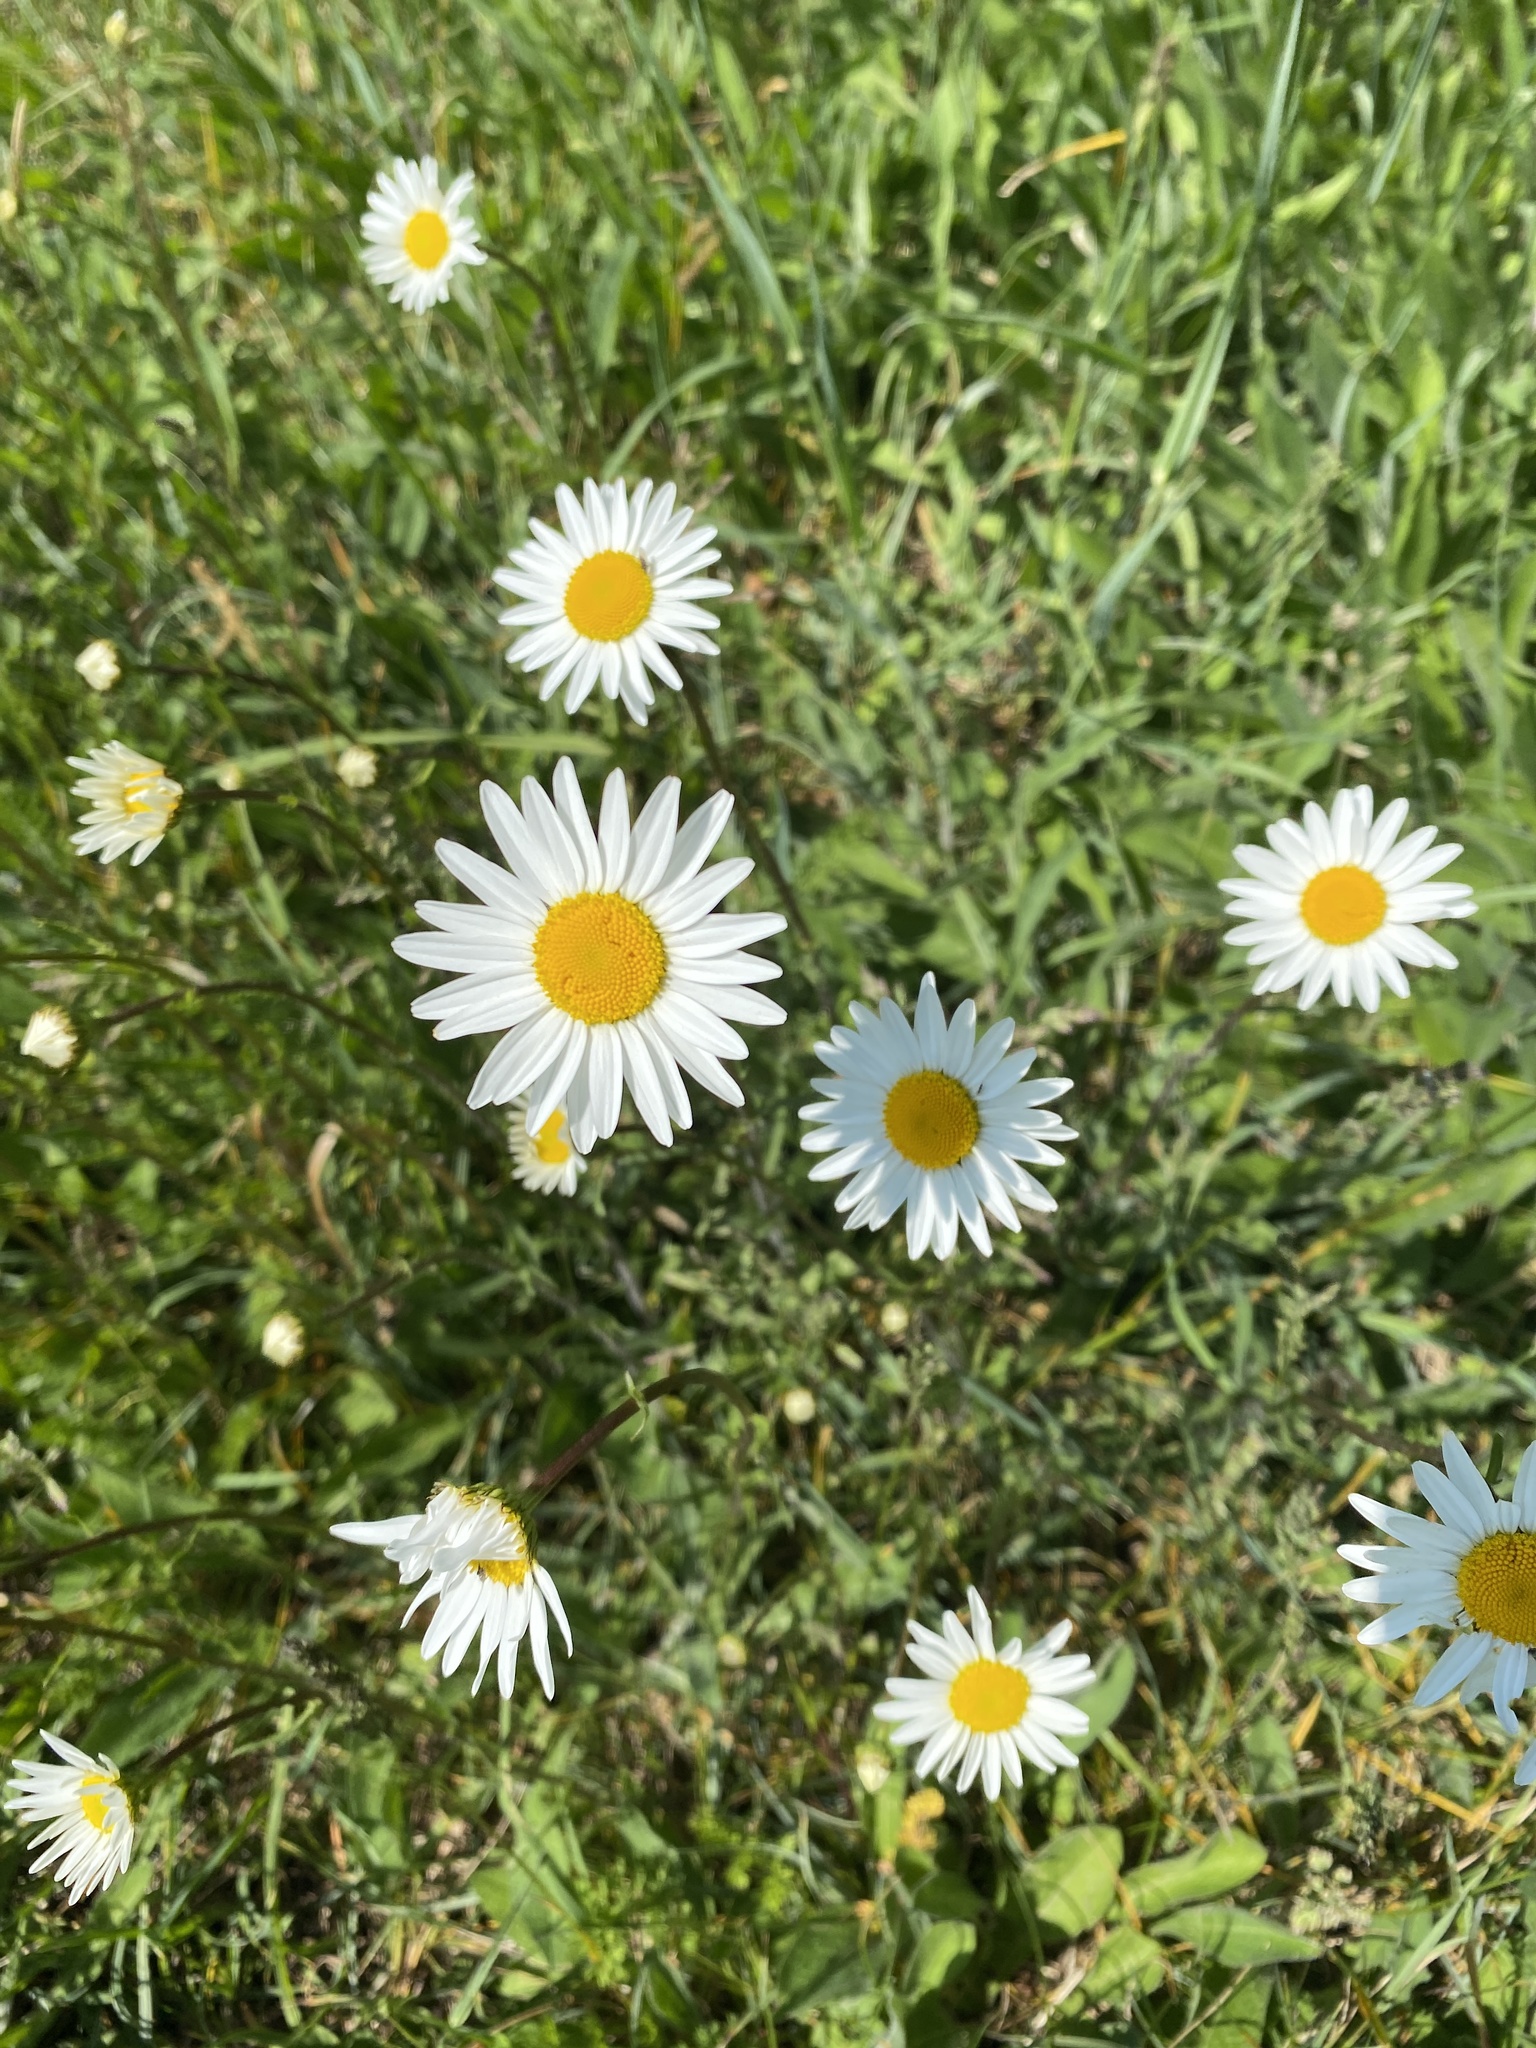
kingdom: Plantae
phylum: Tracheophyta
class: Magnoliopsida
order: Asterales
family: Asteraceae
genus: Leucanthemum
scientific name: Leucanthemum vulgare
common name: Oxeye daisy
